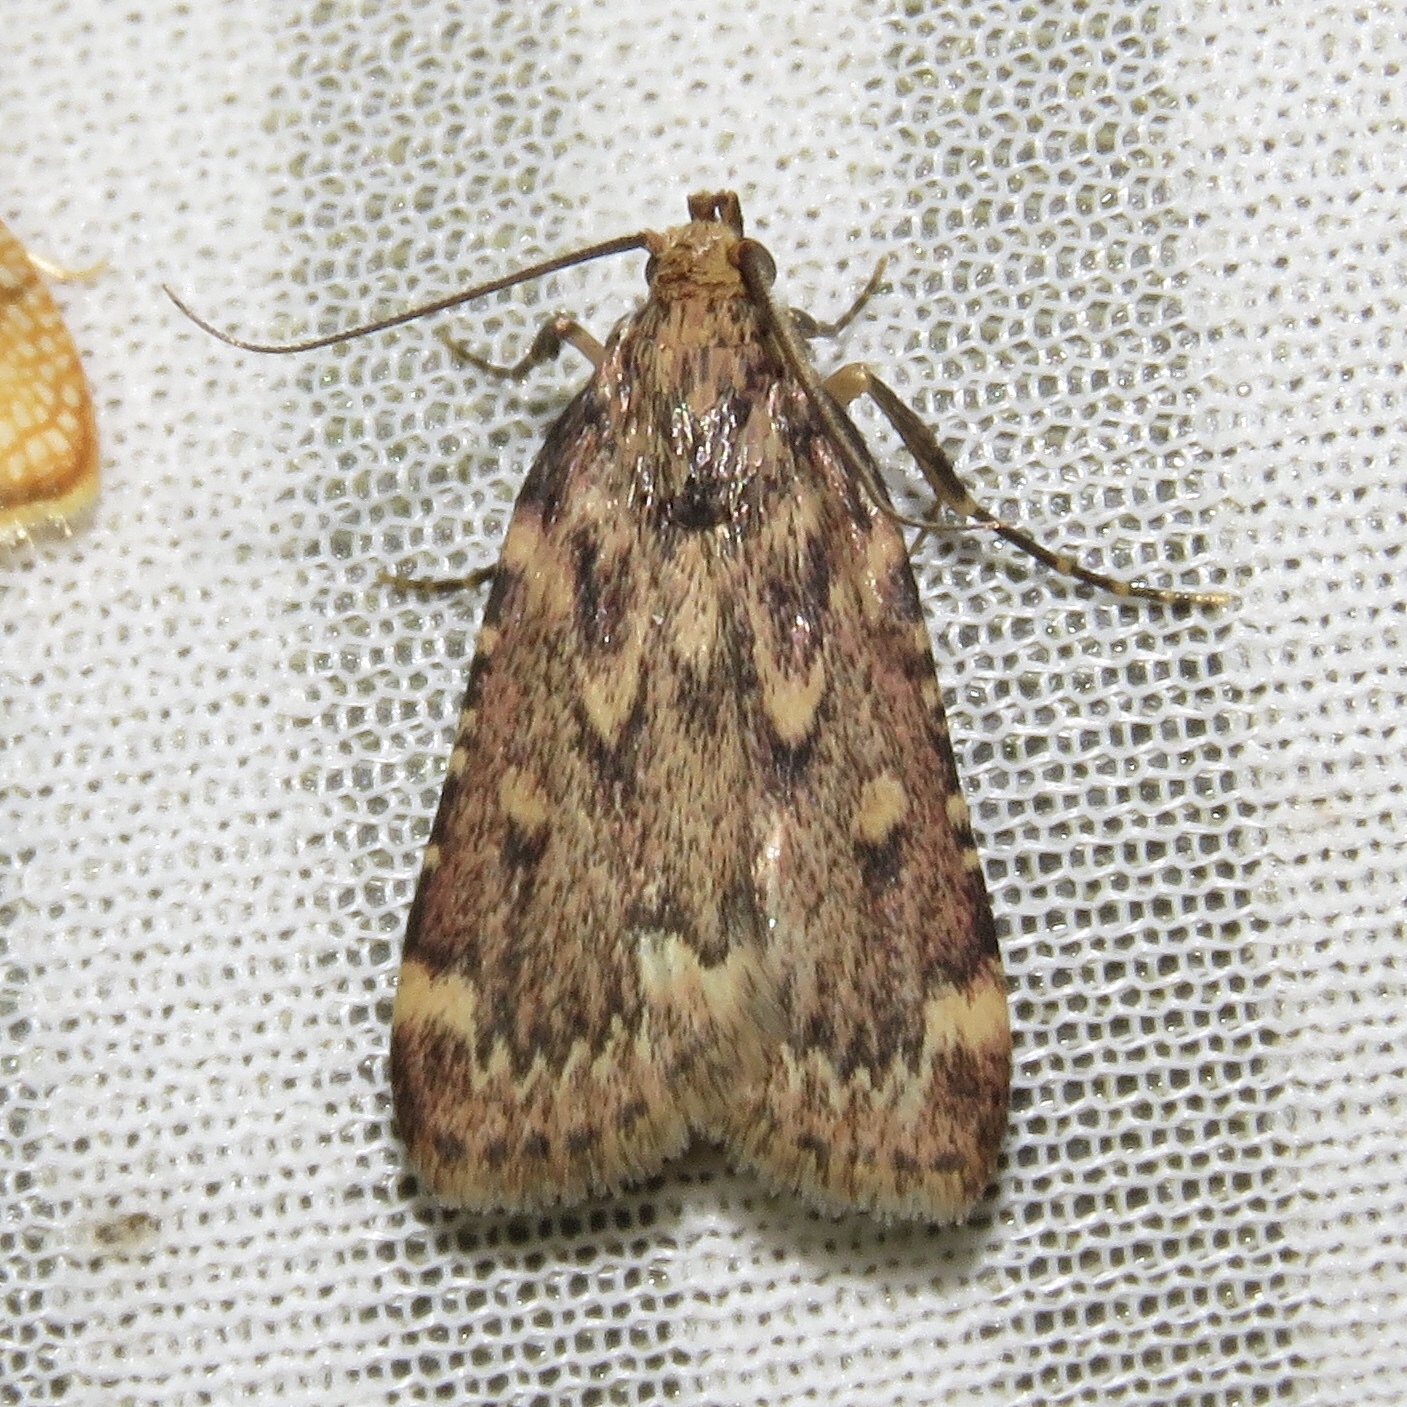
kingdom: Animalia
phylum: Arthropoda
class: Insecta
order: Lepidoptera
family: Pyralidae
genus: Aglossa
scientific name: Aglossa cuprina
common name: Grease moth
